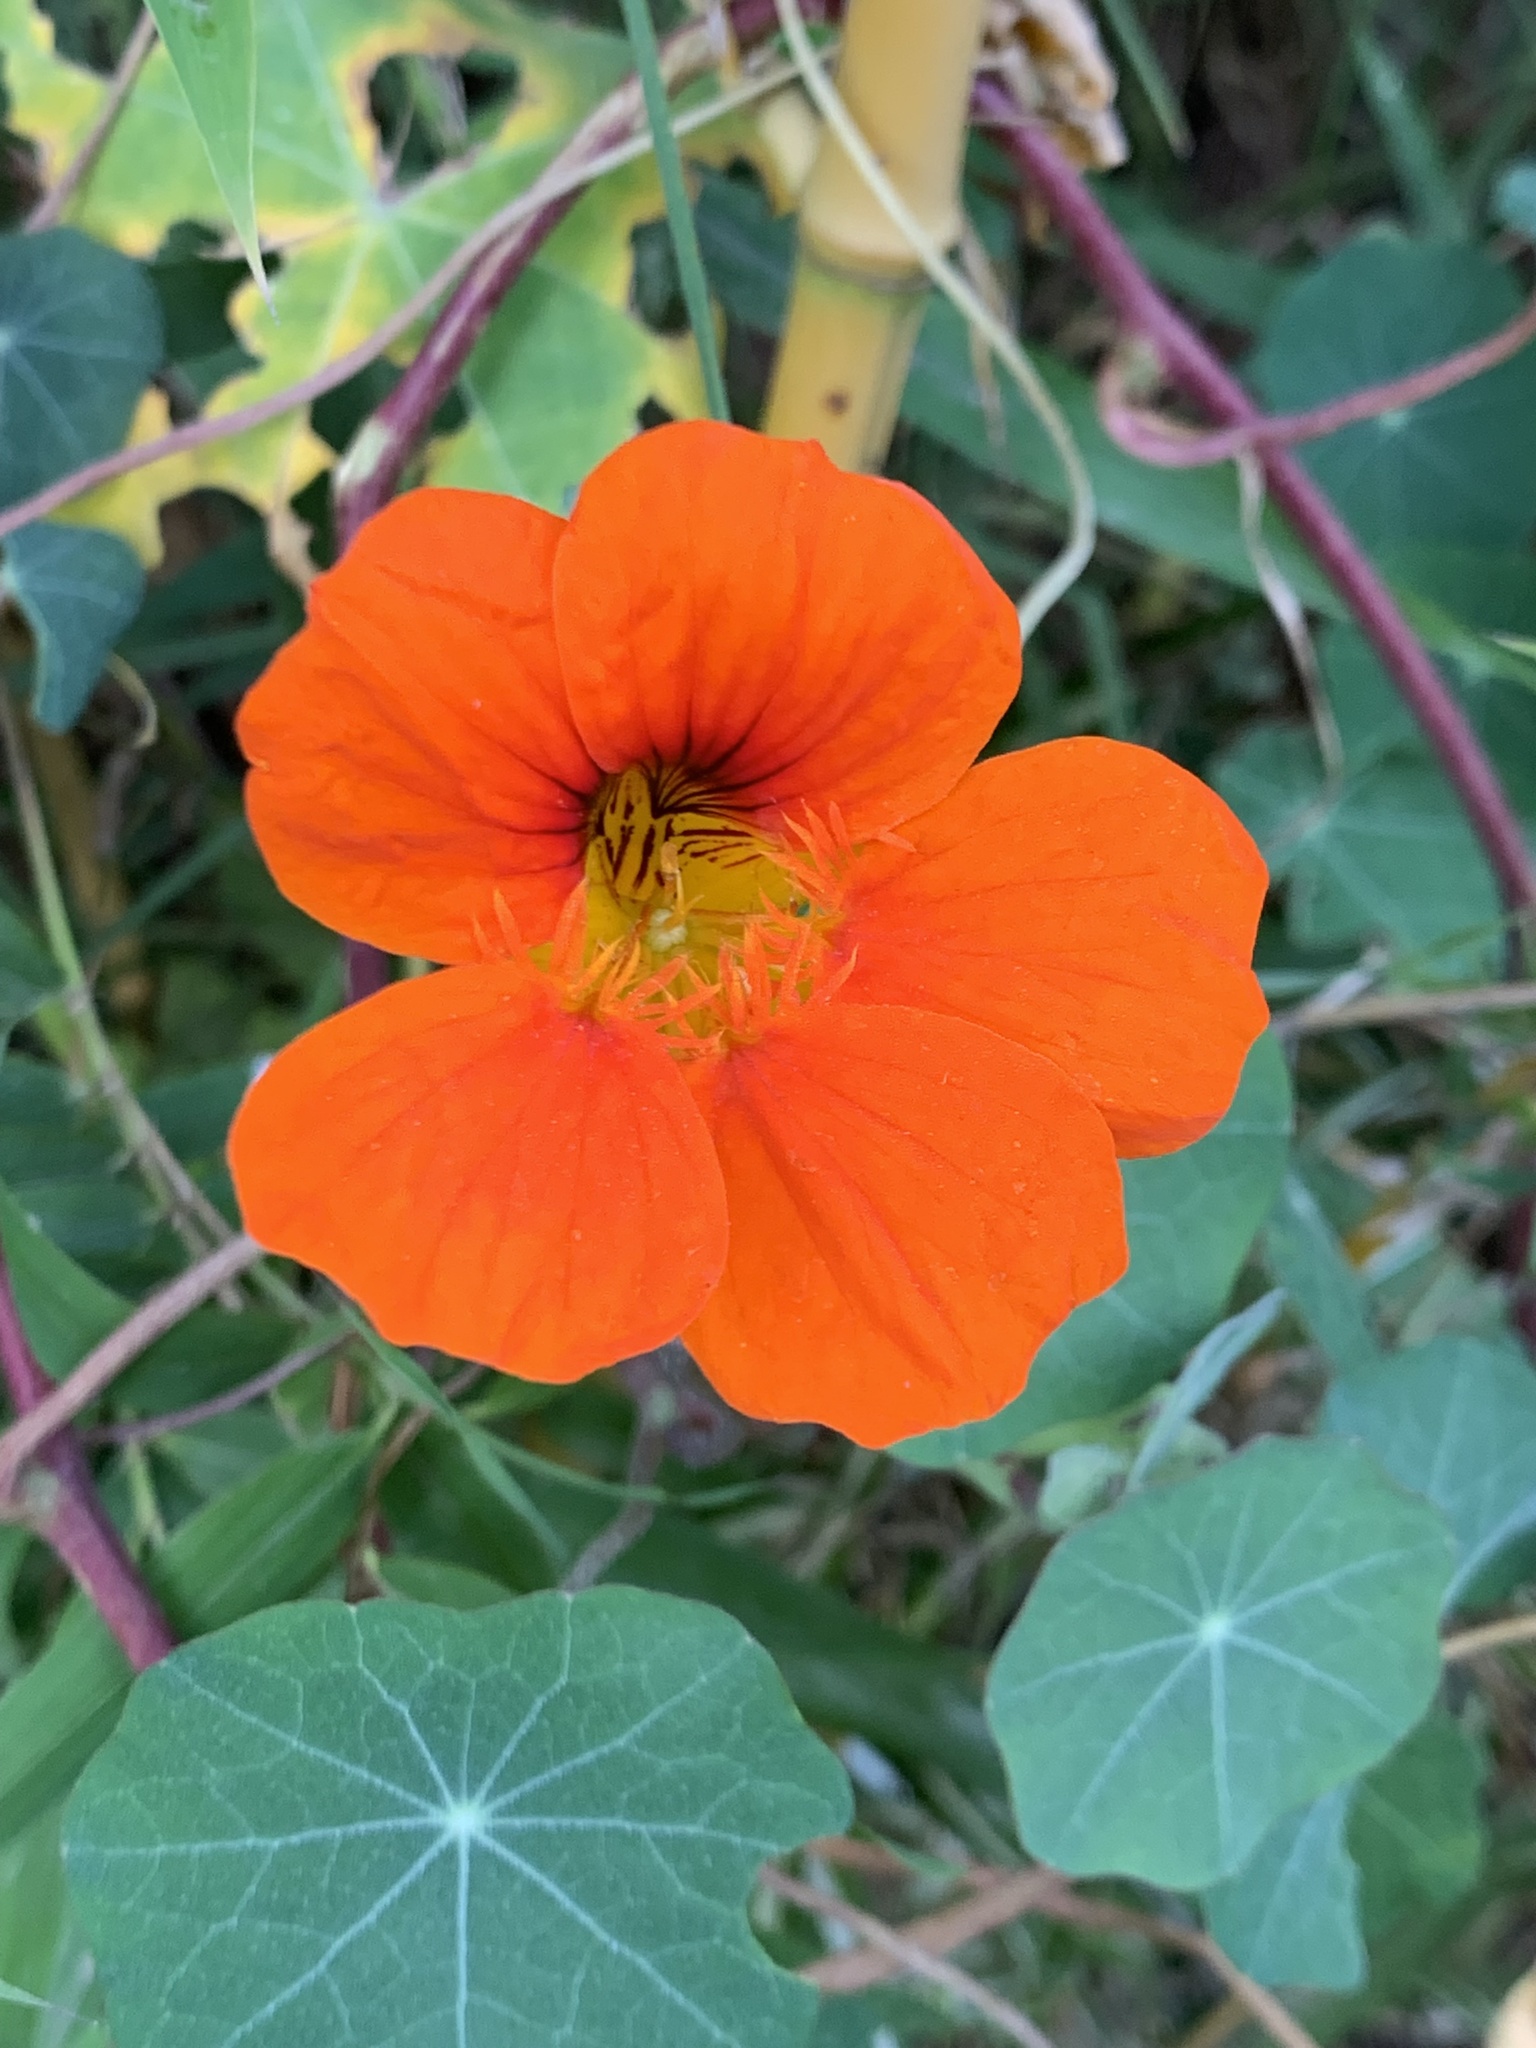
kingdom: Plantae
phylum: Tracheophyta
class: Magnoliopsida
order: Brassicales
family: Tropaeolaceae
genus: Tropaeolum
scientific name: Tropaeolum majus
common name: Nasturtium
